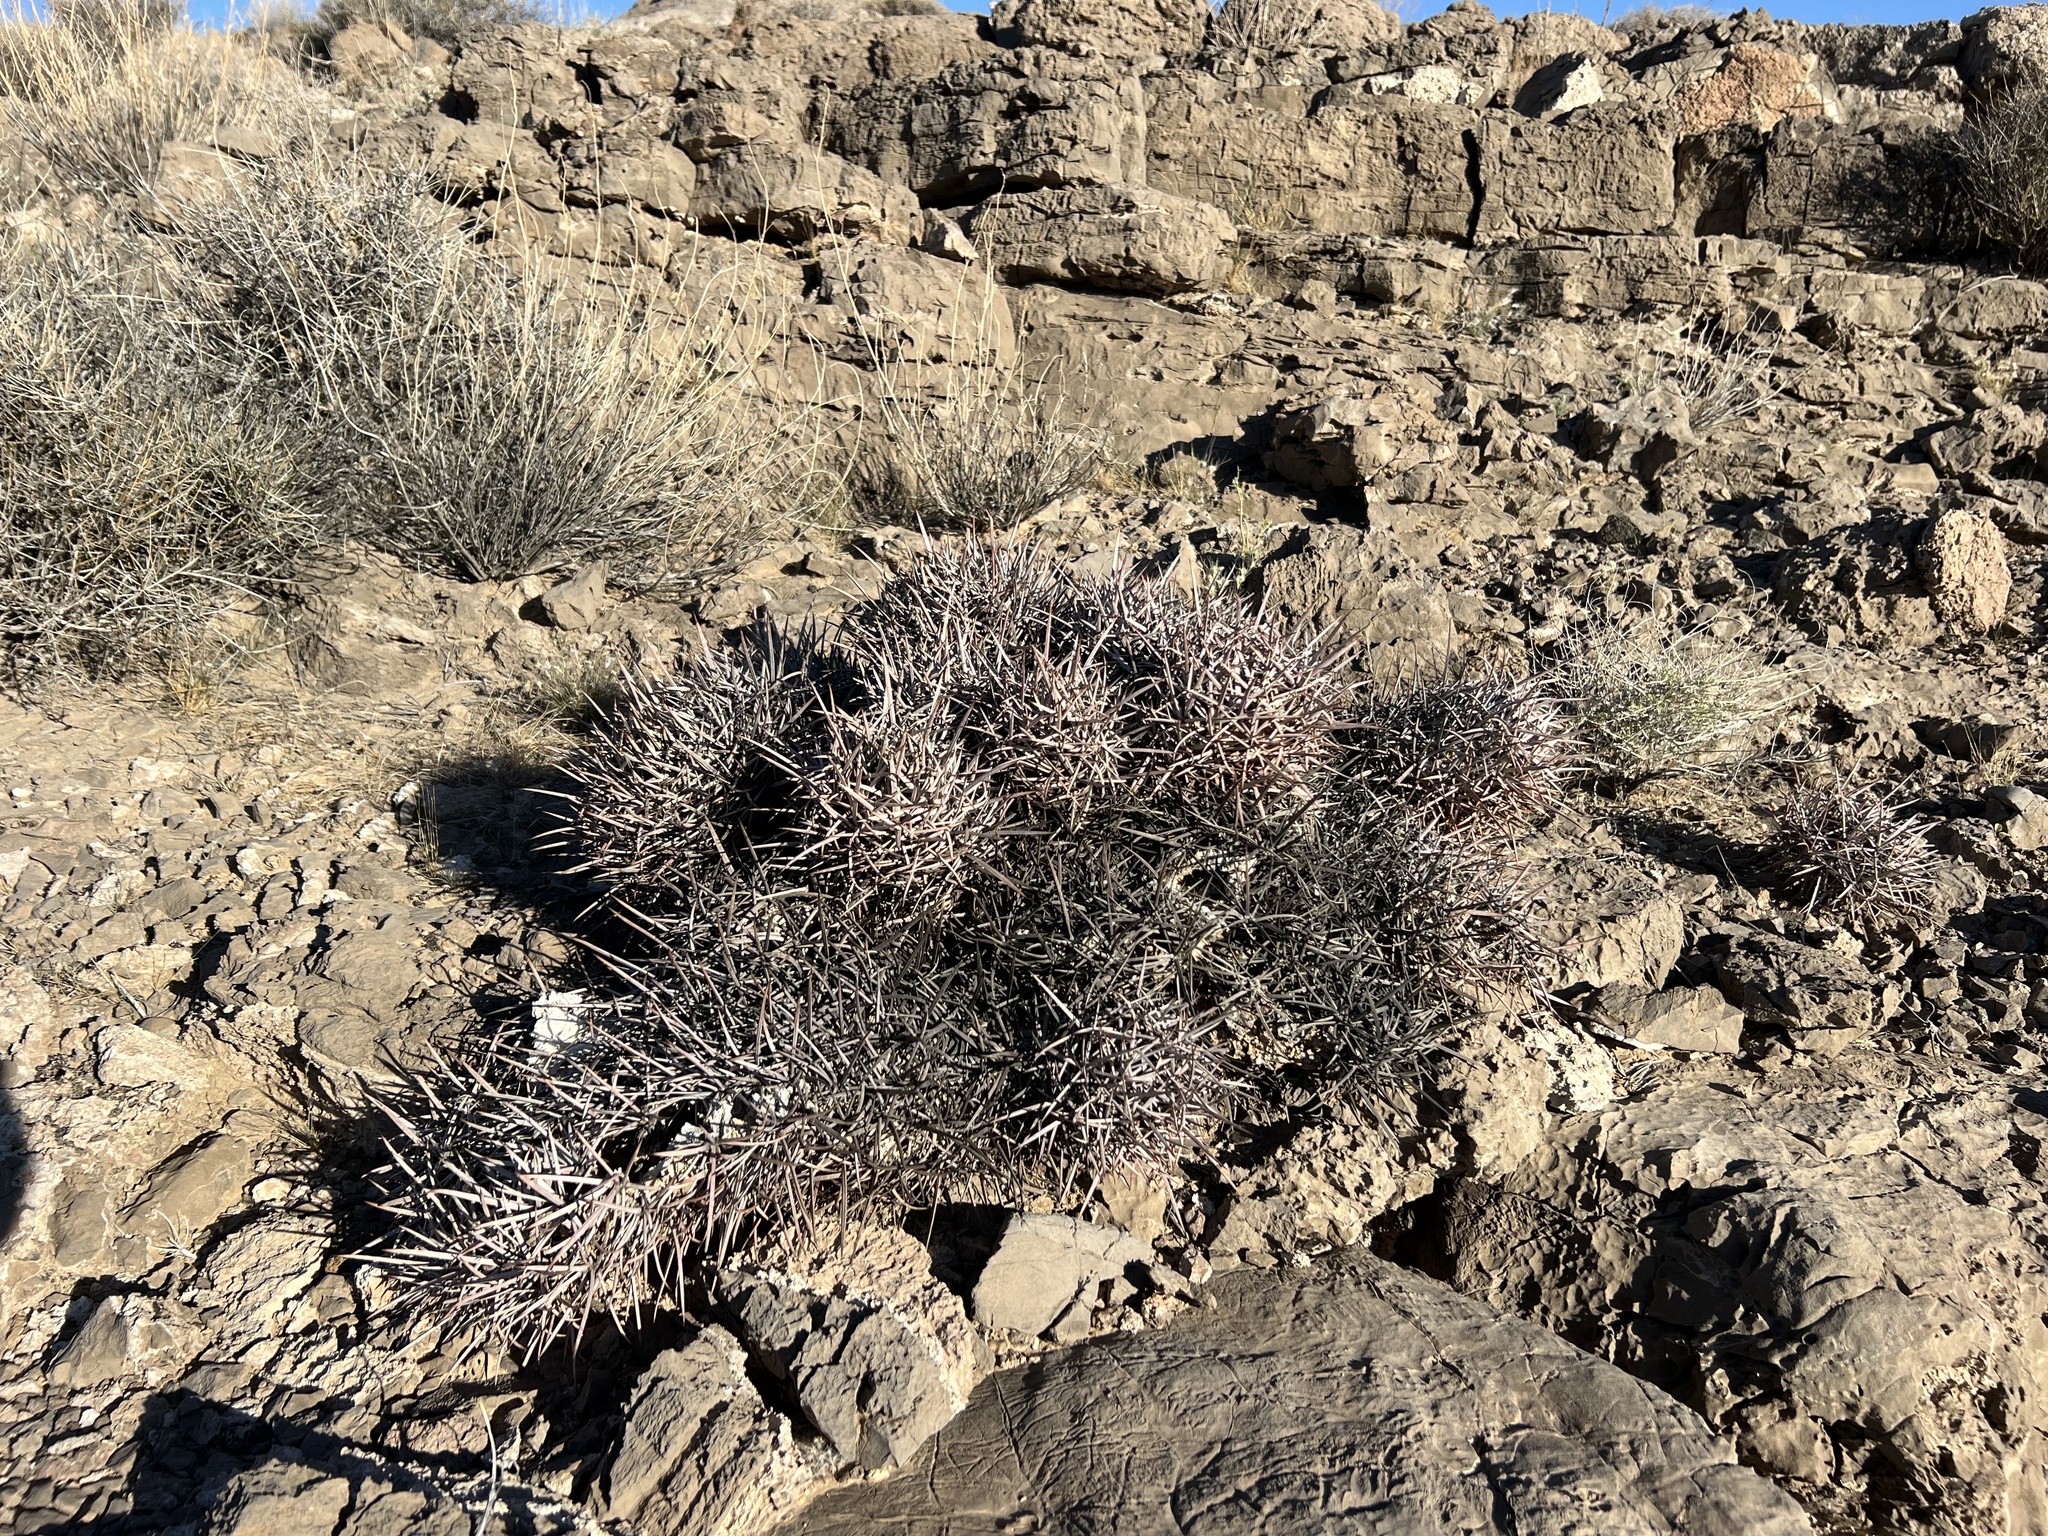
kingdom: Plantae
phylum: Tracheophyta
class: Magnoliopsida
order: Caryophyllales
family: Cactaceae
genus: Echinocactus
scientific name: Echinocactus polycephalus
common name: Cottontop cactus
